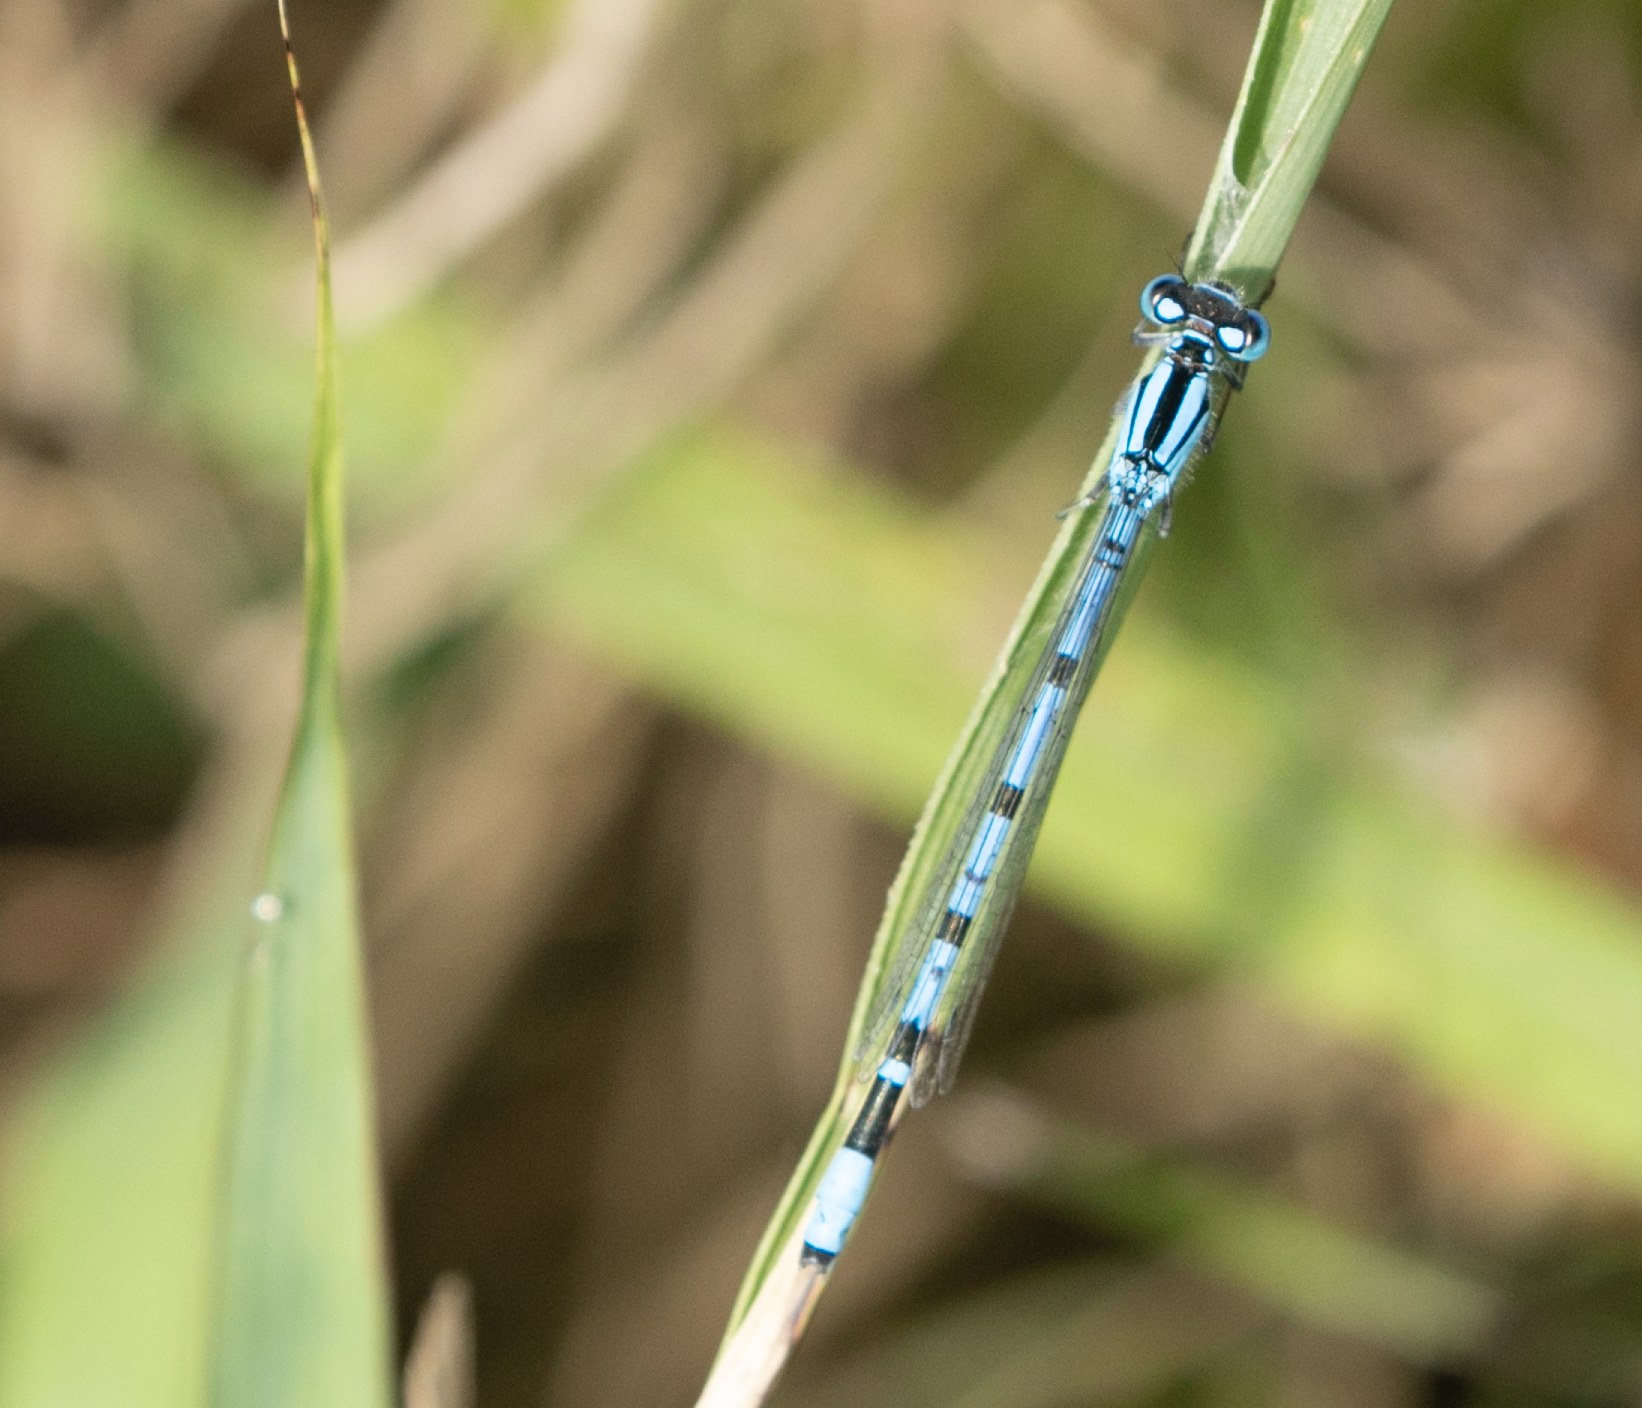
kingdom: Animalia
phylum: Arthropoda
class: Insecta
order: Odonata
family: Coenagrionidae
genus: Enallagma
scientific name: Enallagma cyathigerum
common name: Common blue damselfly
